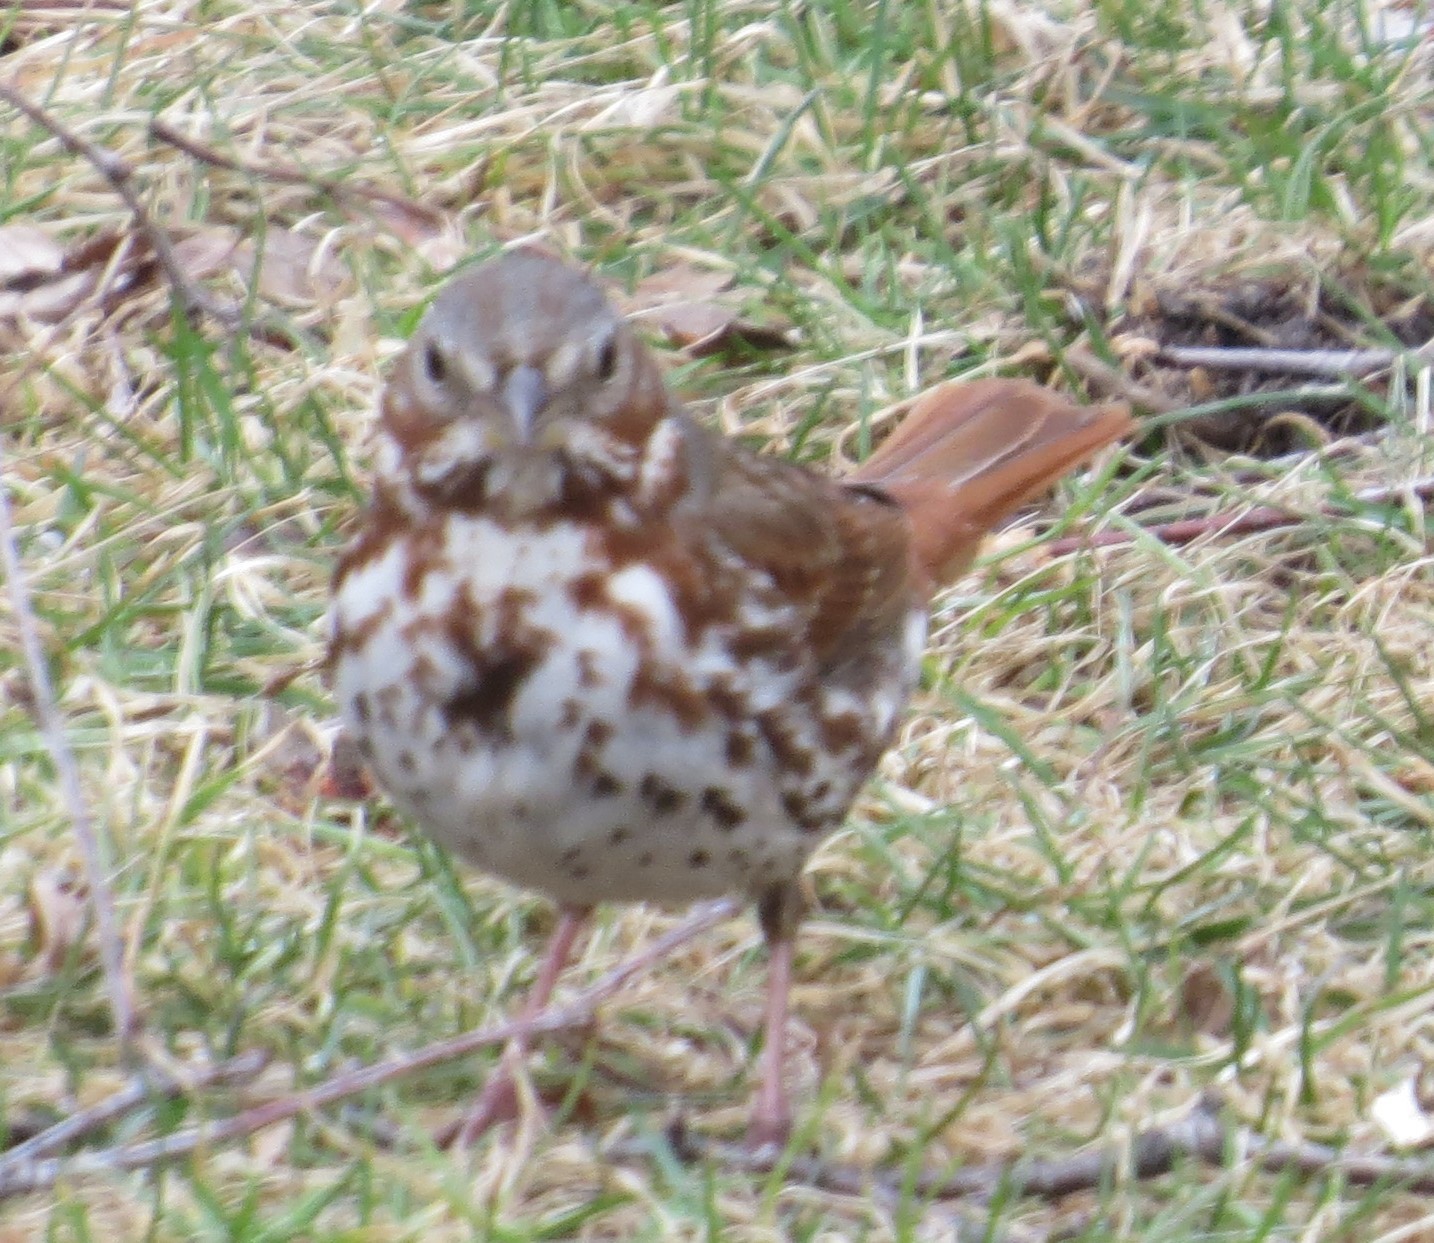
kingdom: Animalia
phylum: Chordata
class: Aves
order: Passeriformes
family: Passerellidae
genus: Passerella
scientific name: Passerella iliaca
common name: Fox sparrow
